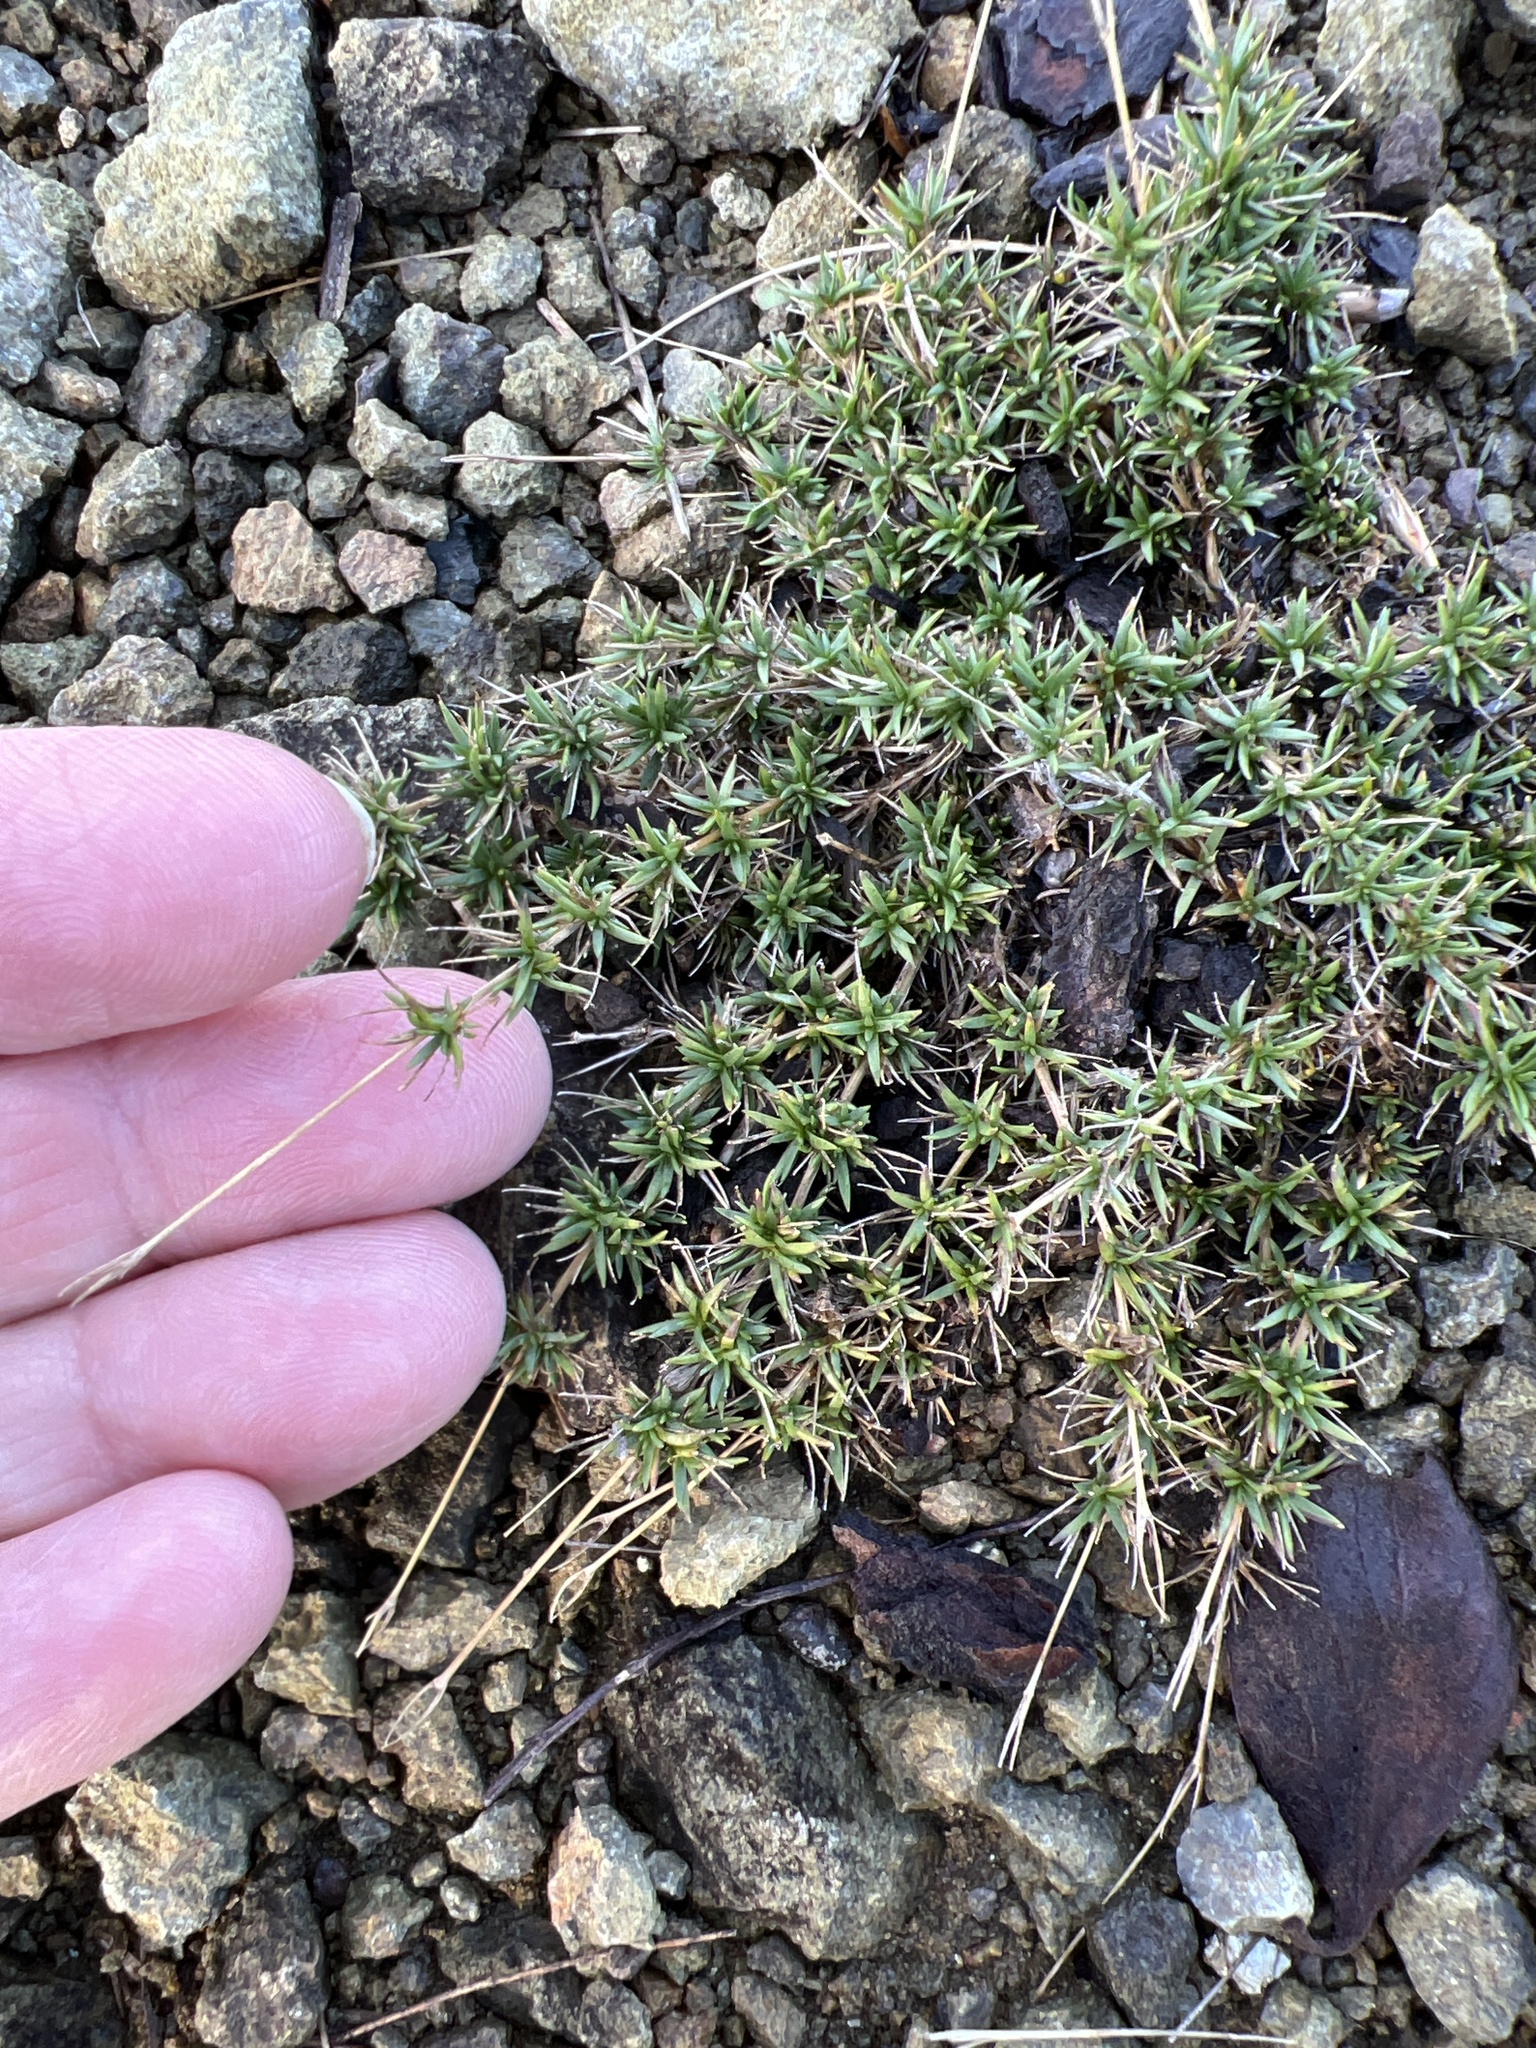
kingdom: Plantae
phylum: Tracheophyta
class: Magnoliopsida
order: Caryophyllales
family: Caryophyllaceae
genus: Sabulina
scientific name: Sabulina michauxii
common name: Michaux's stitchwort
